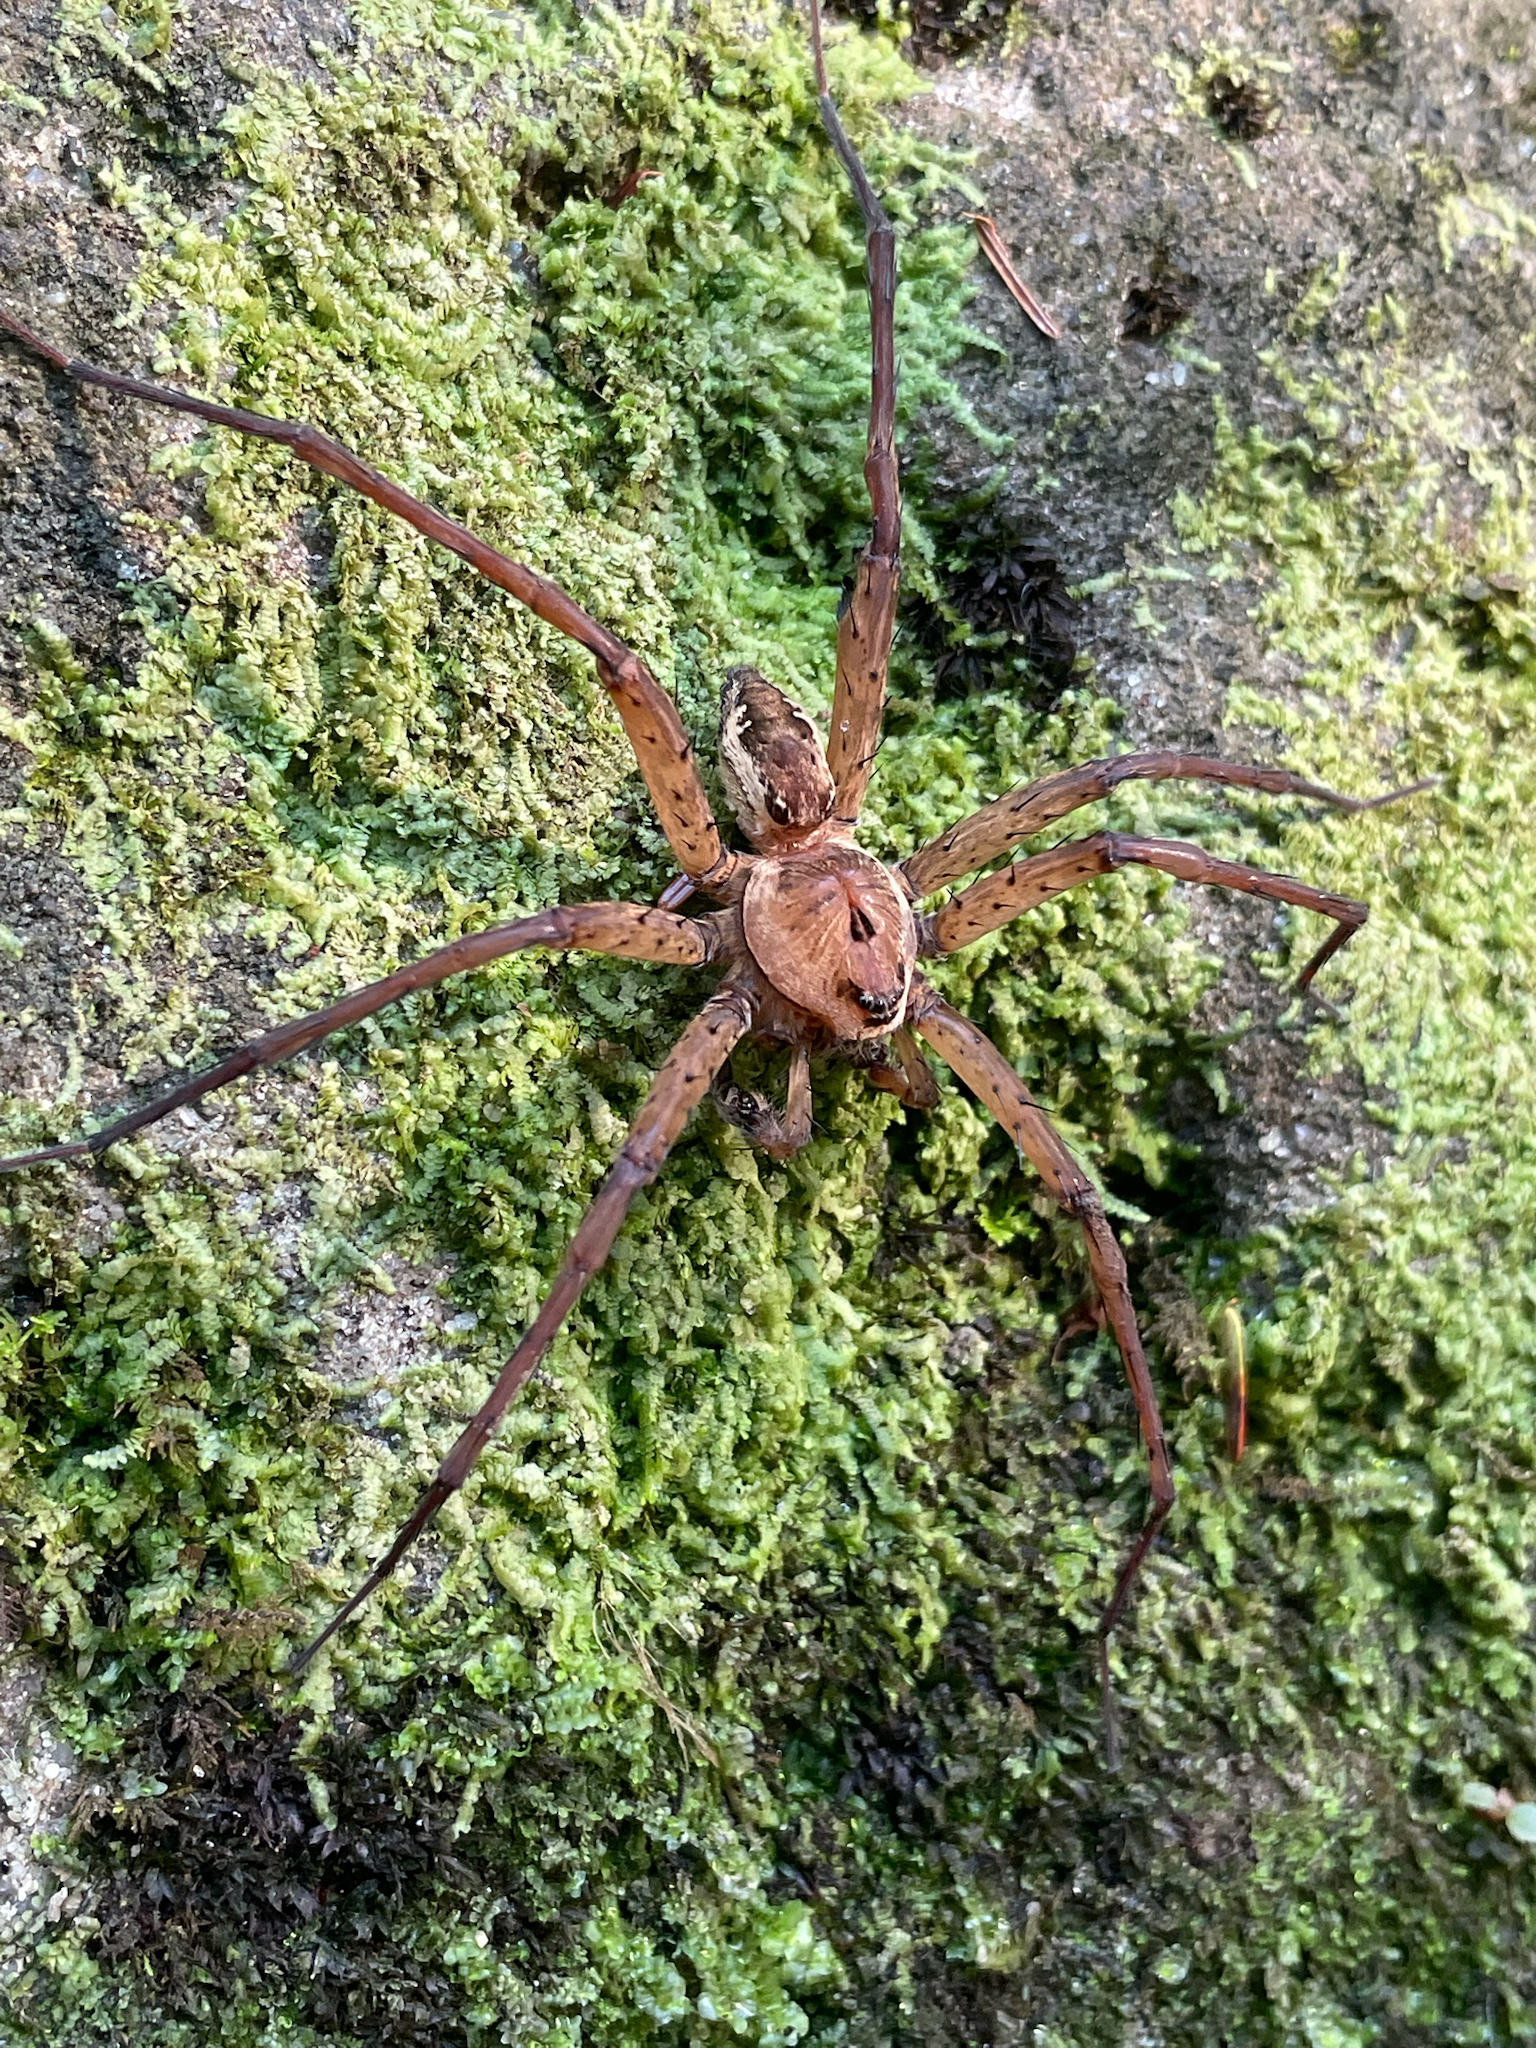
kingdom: Animalia
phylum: Arthropoda
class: Arachnida
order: Araneae
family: Pisauridae
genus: Dolomedes
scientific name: Dolomedes vittatus
